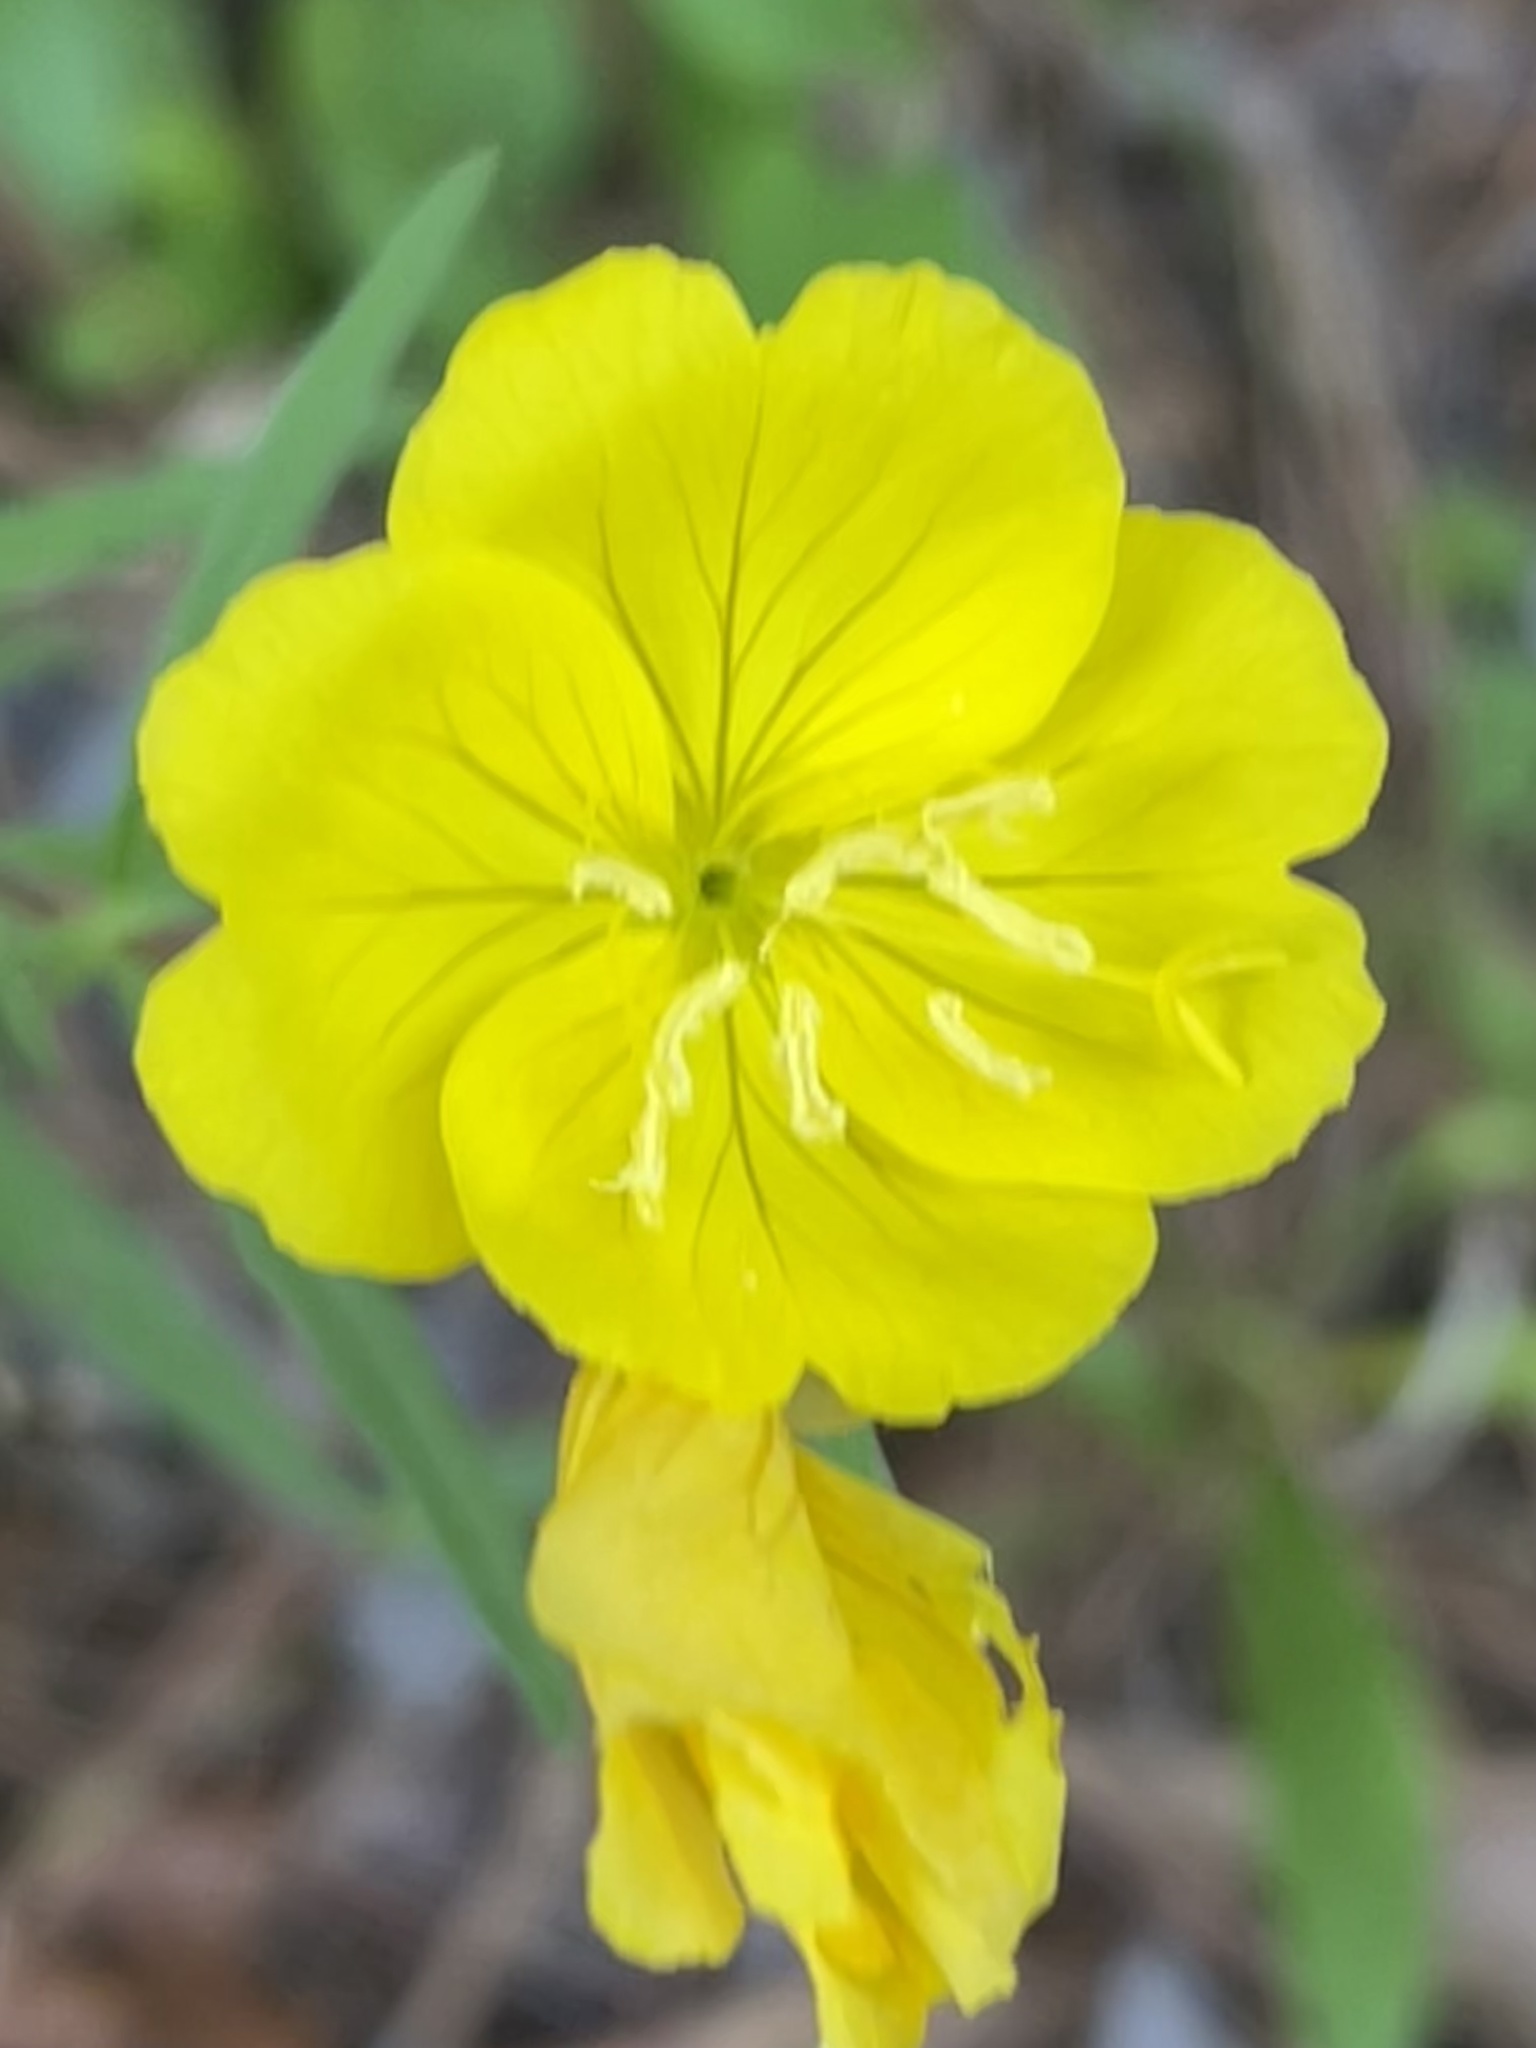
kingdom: Plantae
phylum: Tracheophyta
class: Magnoliopsida
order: Myrtales
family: Onagraceae
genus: Oenothera
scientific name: Oenothera fruticosa
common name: Southern sundrops
